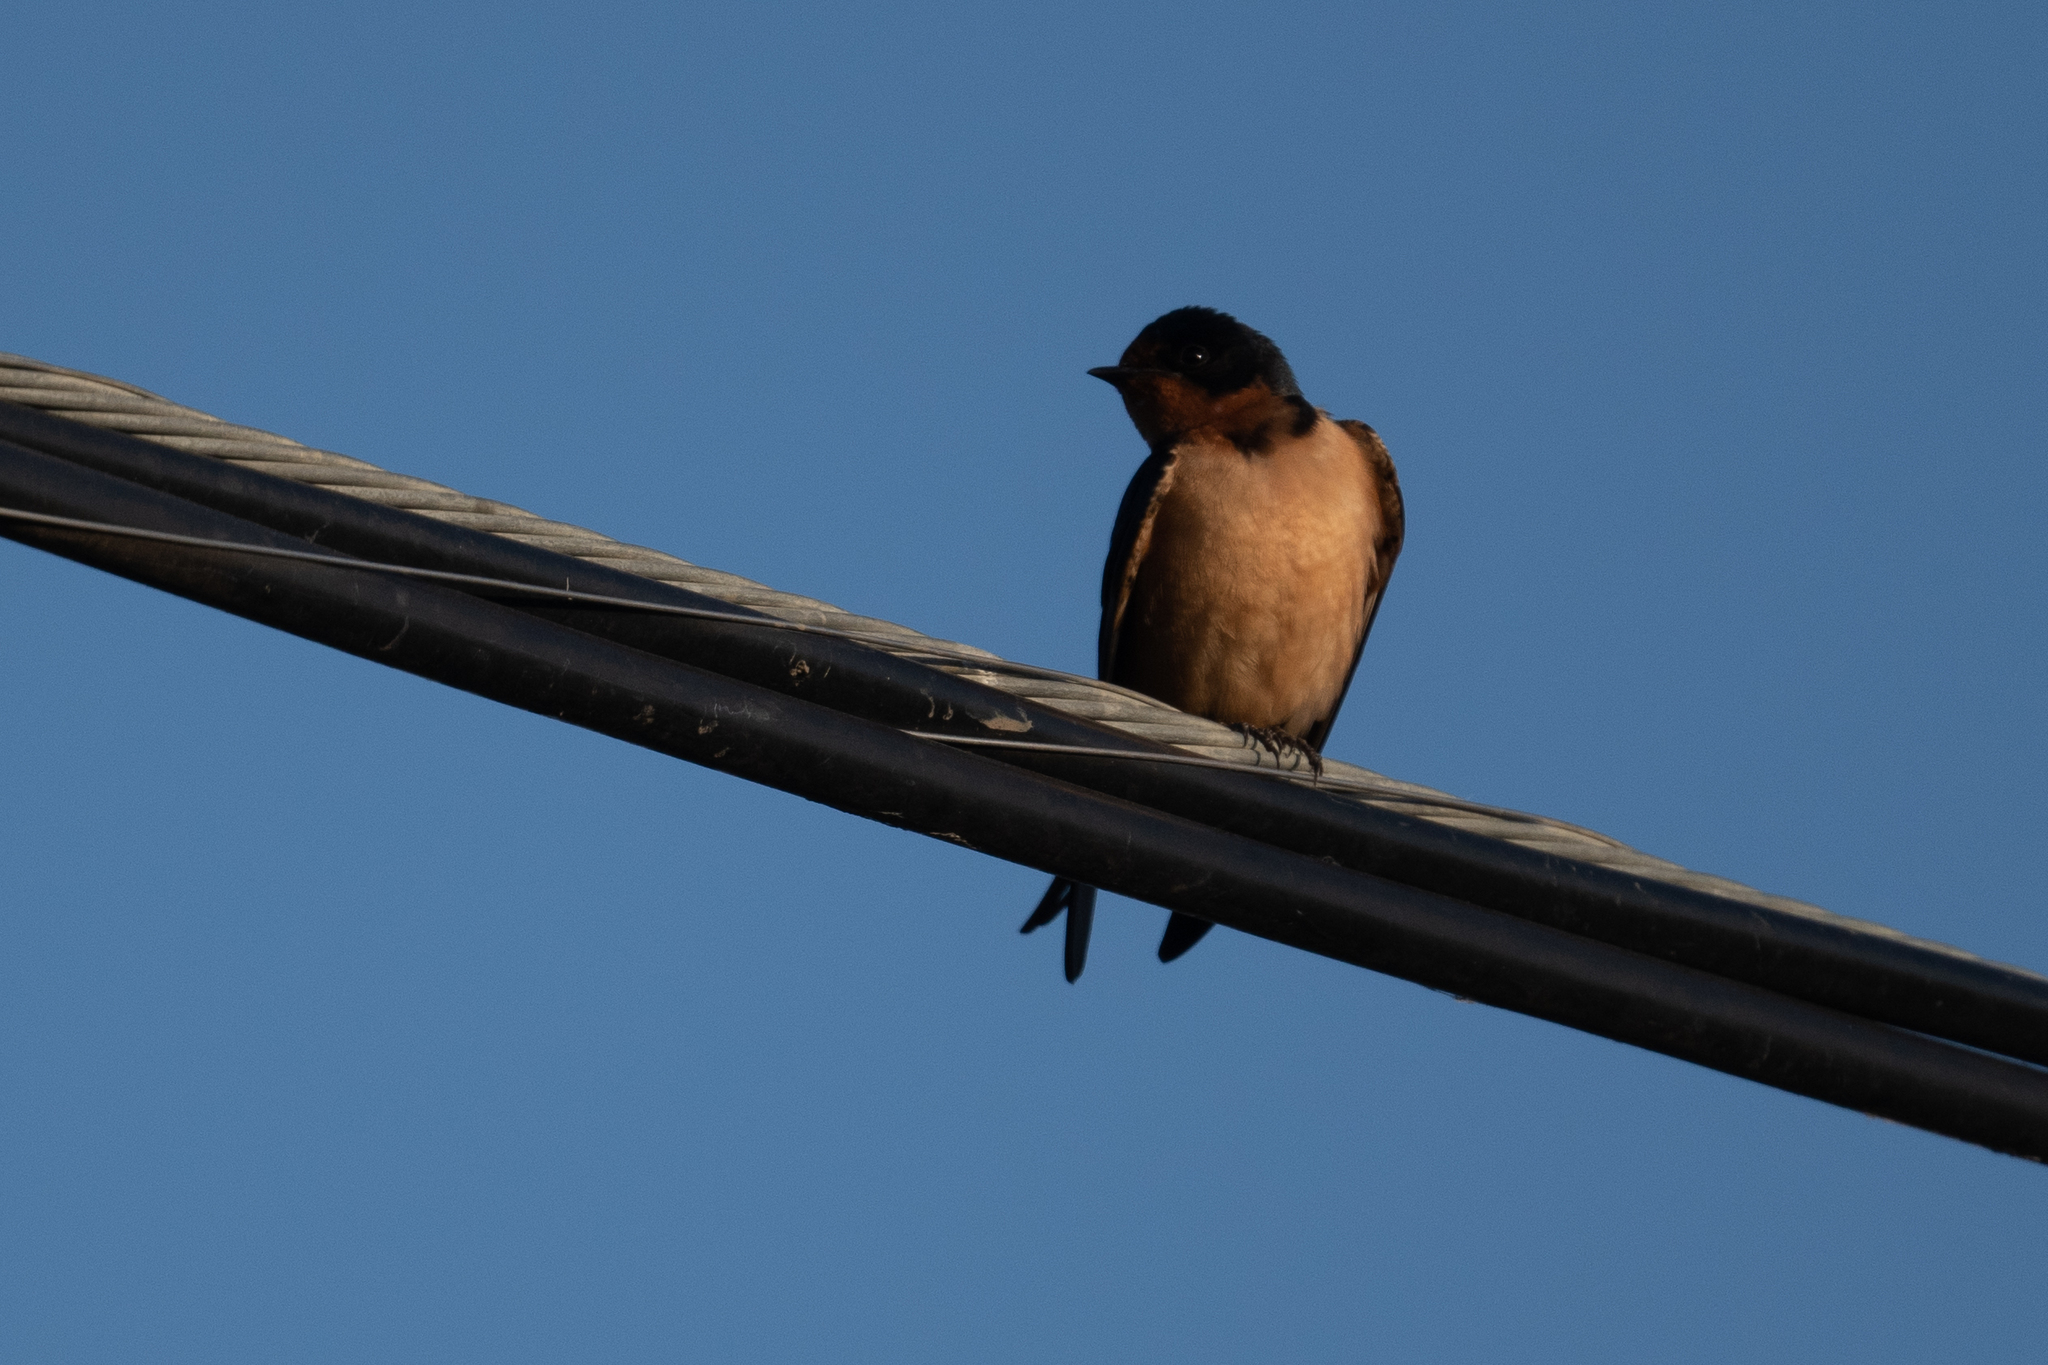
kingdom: Animalia
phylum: Chordata
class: Aves
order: Passeriformes
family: Hirundinidae
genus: Hirundo
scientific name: Hirundo rustica
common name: Barn swallow
